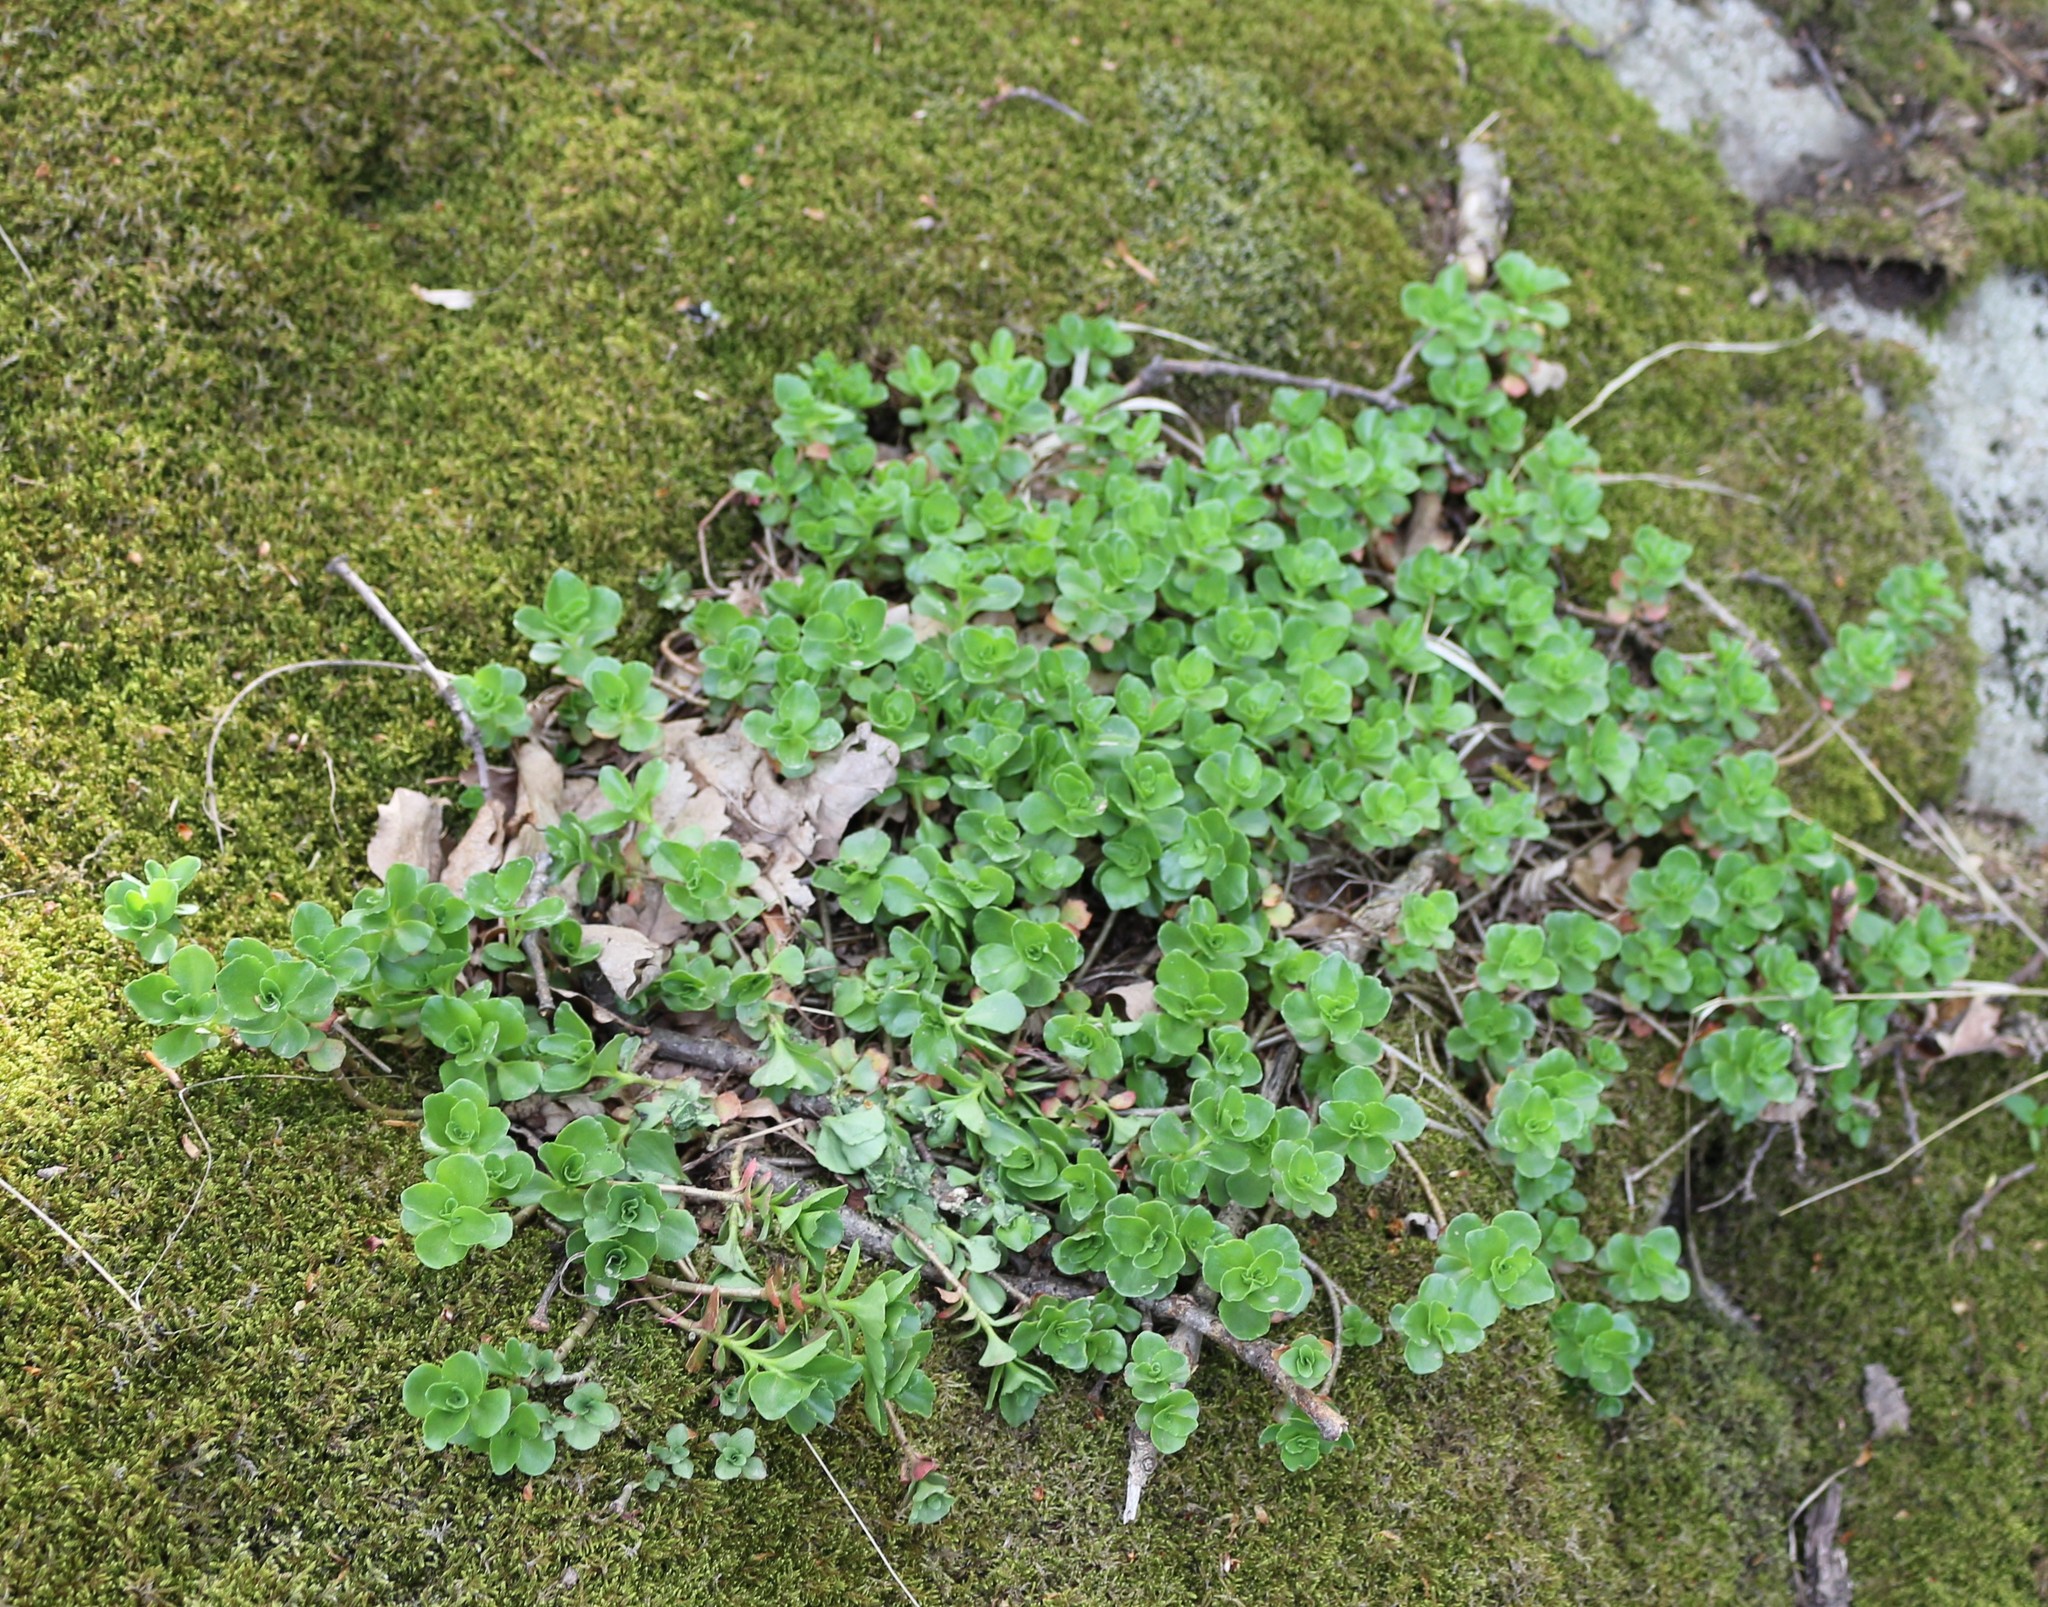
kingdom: Plantae
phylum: Tracheophyta
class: Magnoliopsida
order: Saxifragales
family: Crassulaceae
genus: Phedimus
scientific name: Phedimus spurius
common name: Caucasian stonecrop
